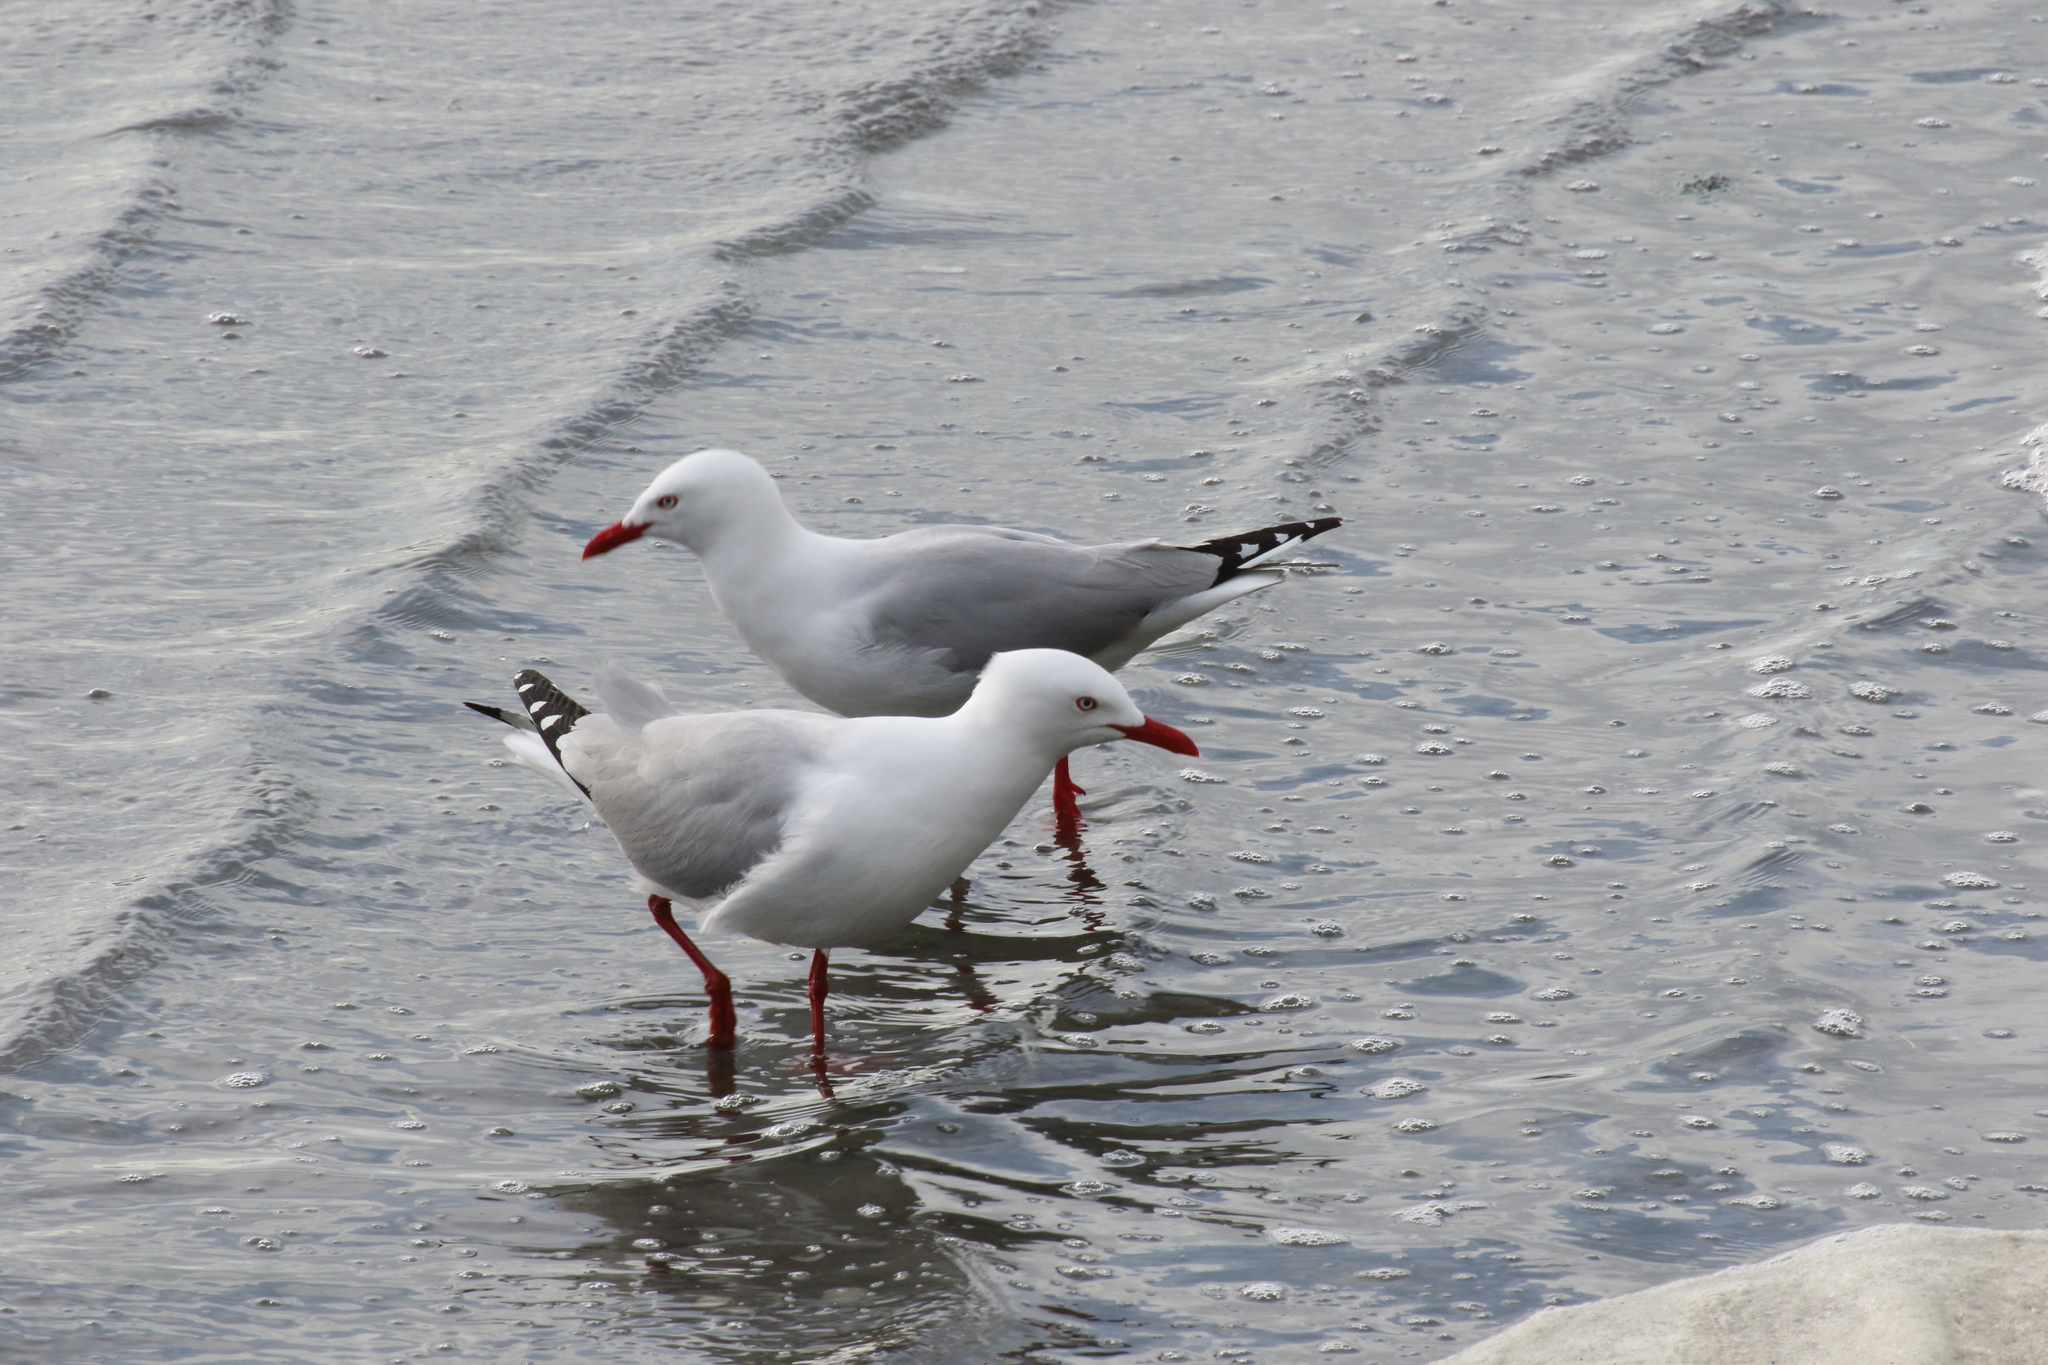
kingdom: Animalia
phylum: Chordata
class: Aves
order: Charadriiformes
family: Laridae
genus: Chroicocephalus
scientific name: Chroicocephalus novaehollandiae
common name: Silver gull
